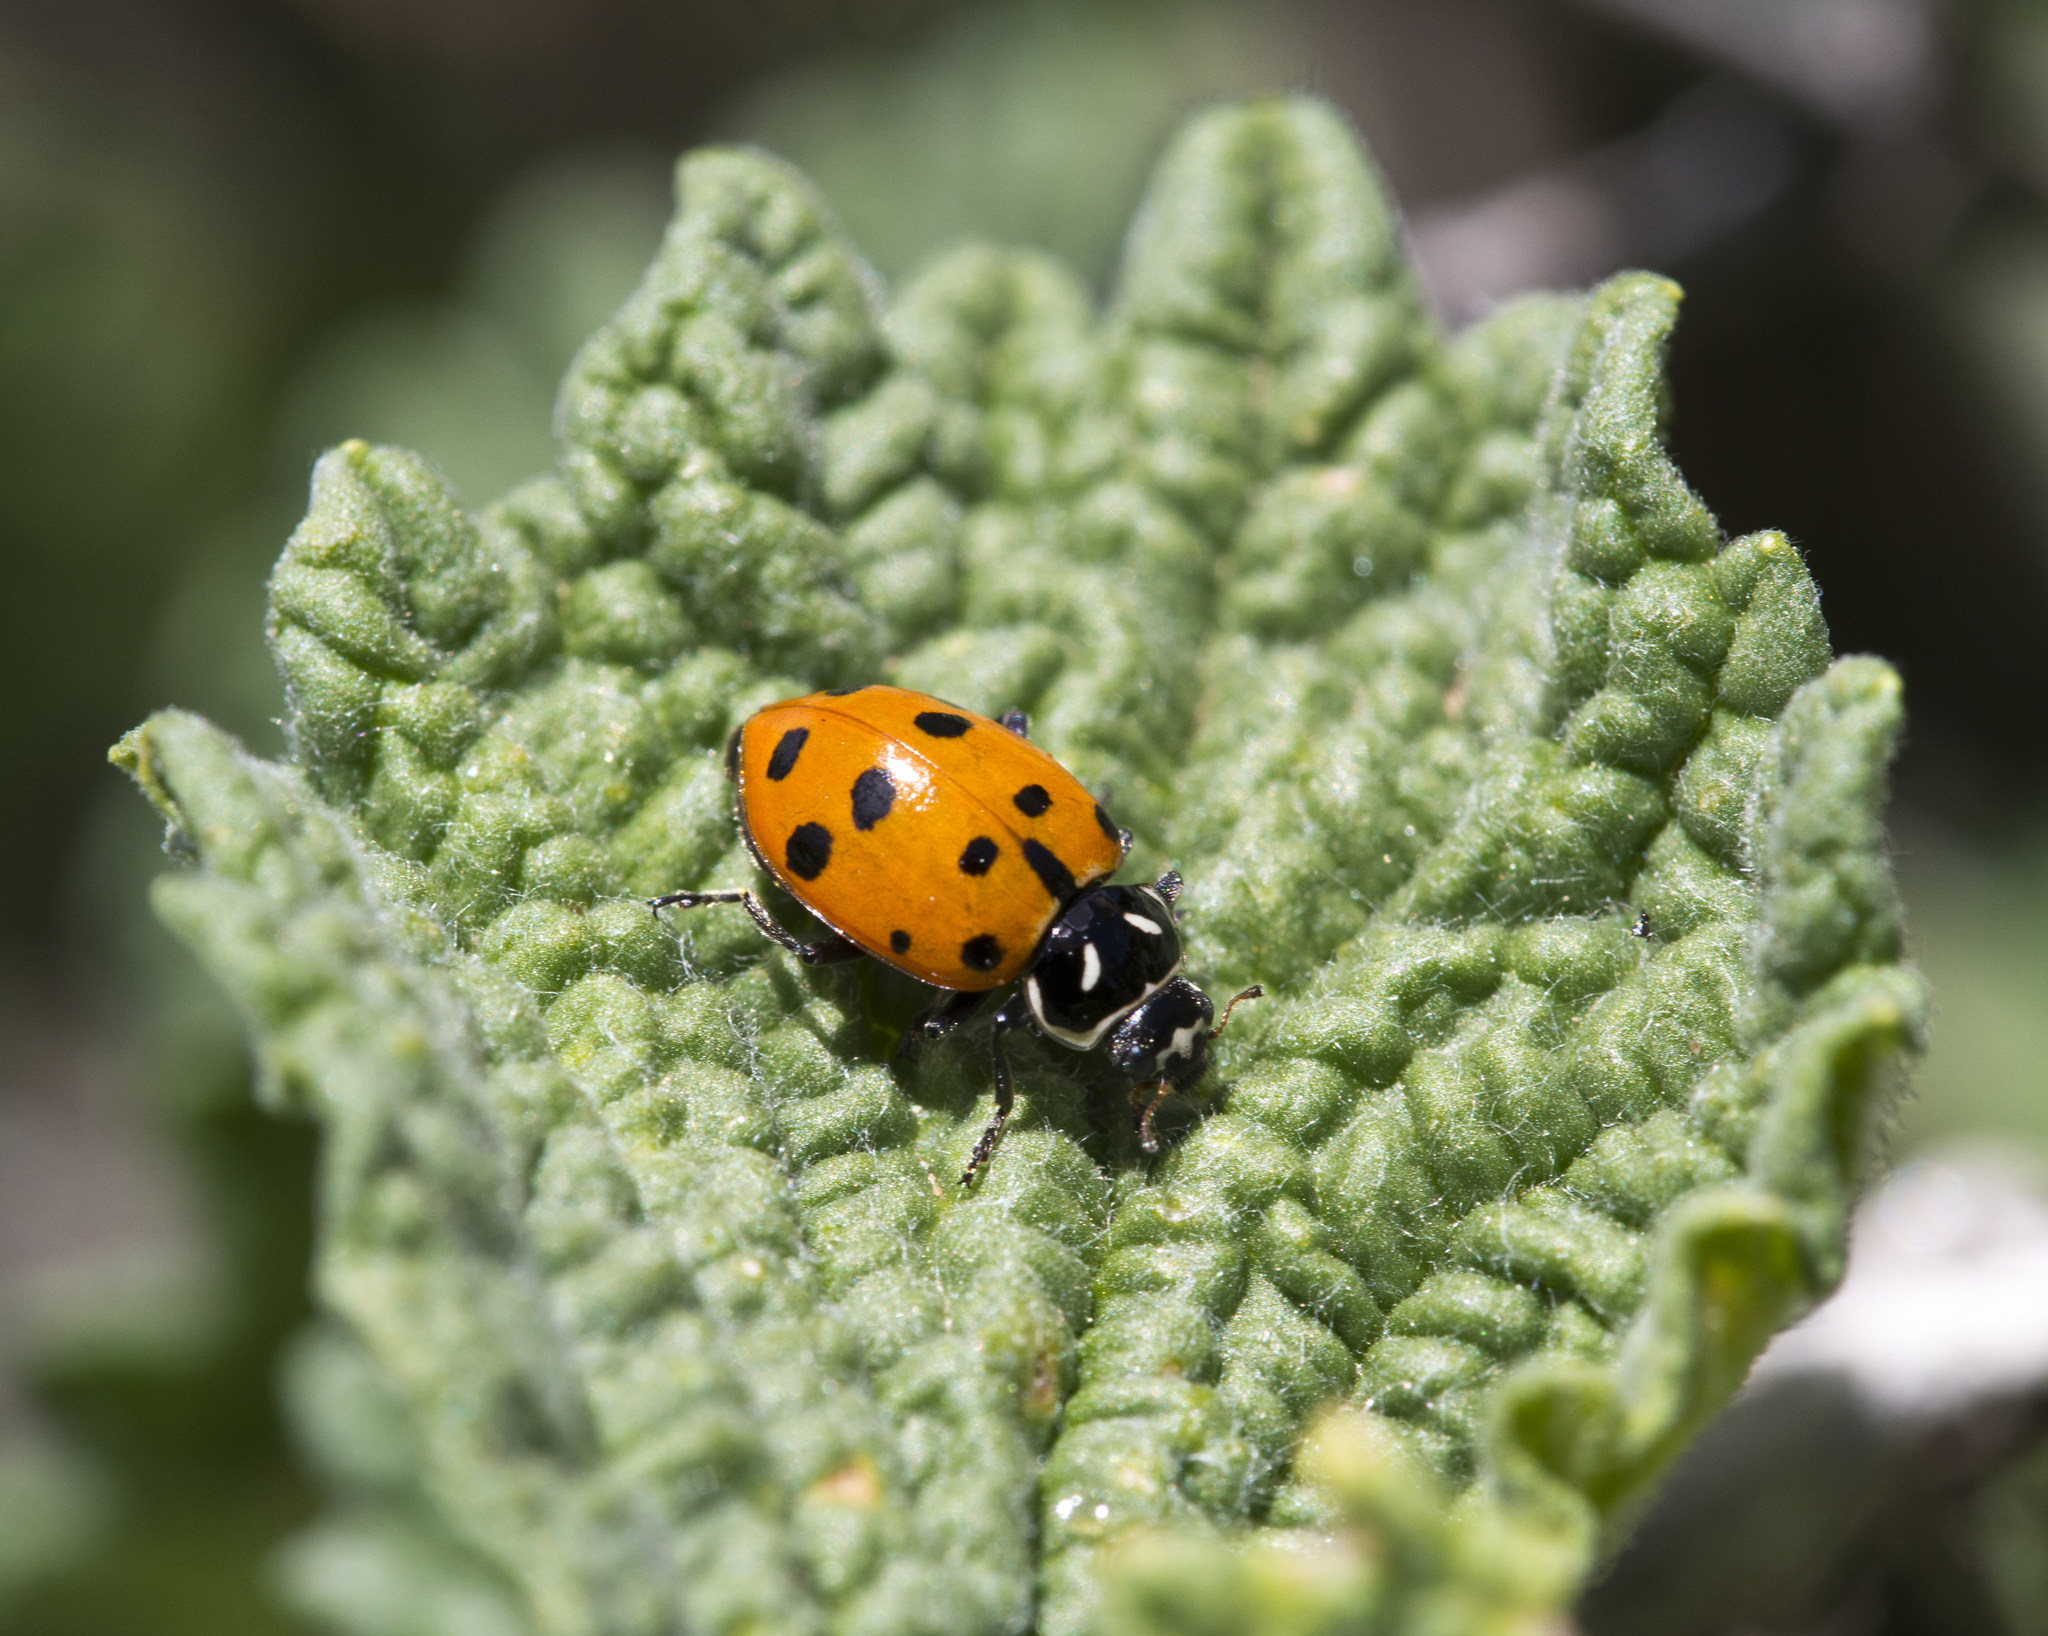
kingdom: Animalia
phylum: Arthropoda
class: Insecta
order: Coleoptera
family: Coccinellidae
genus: Hippodamia
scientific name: Hippodamia convergens
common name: Convergent lady beetle
